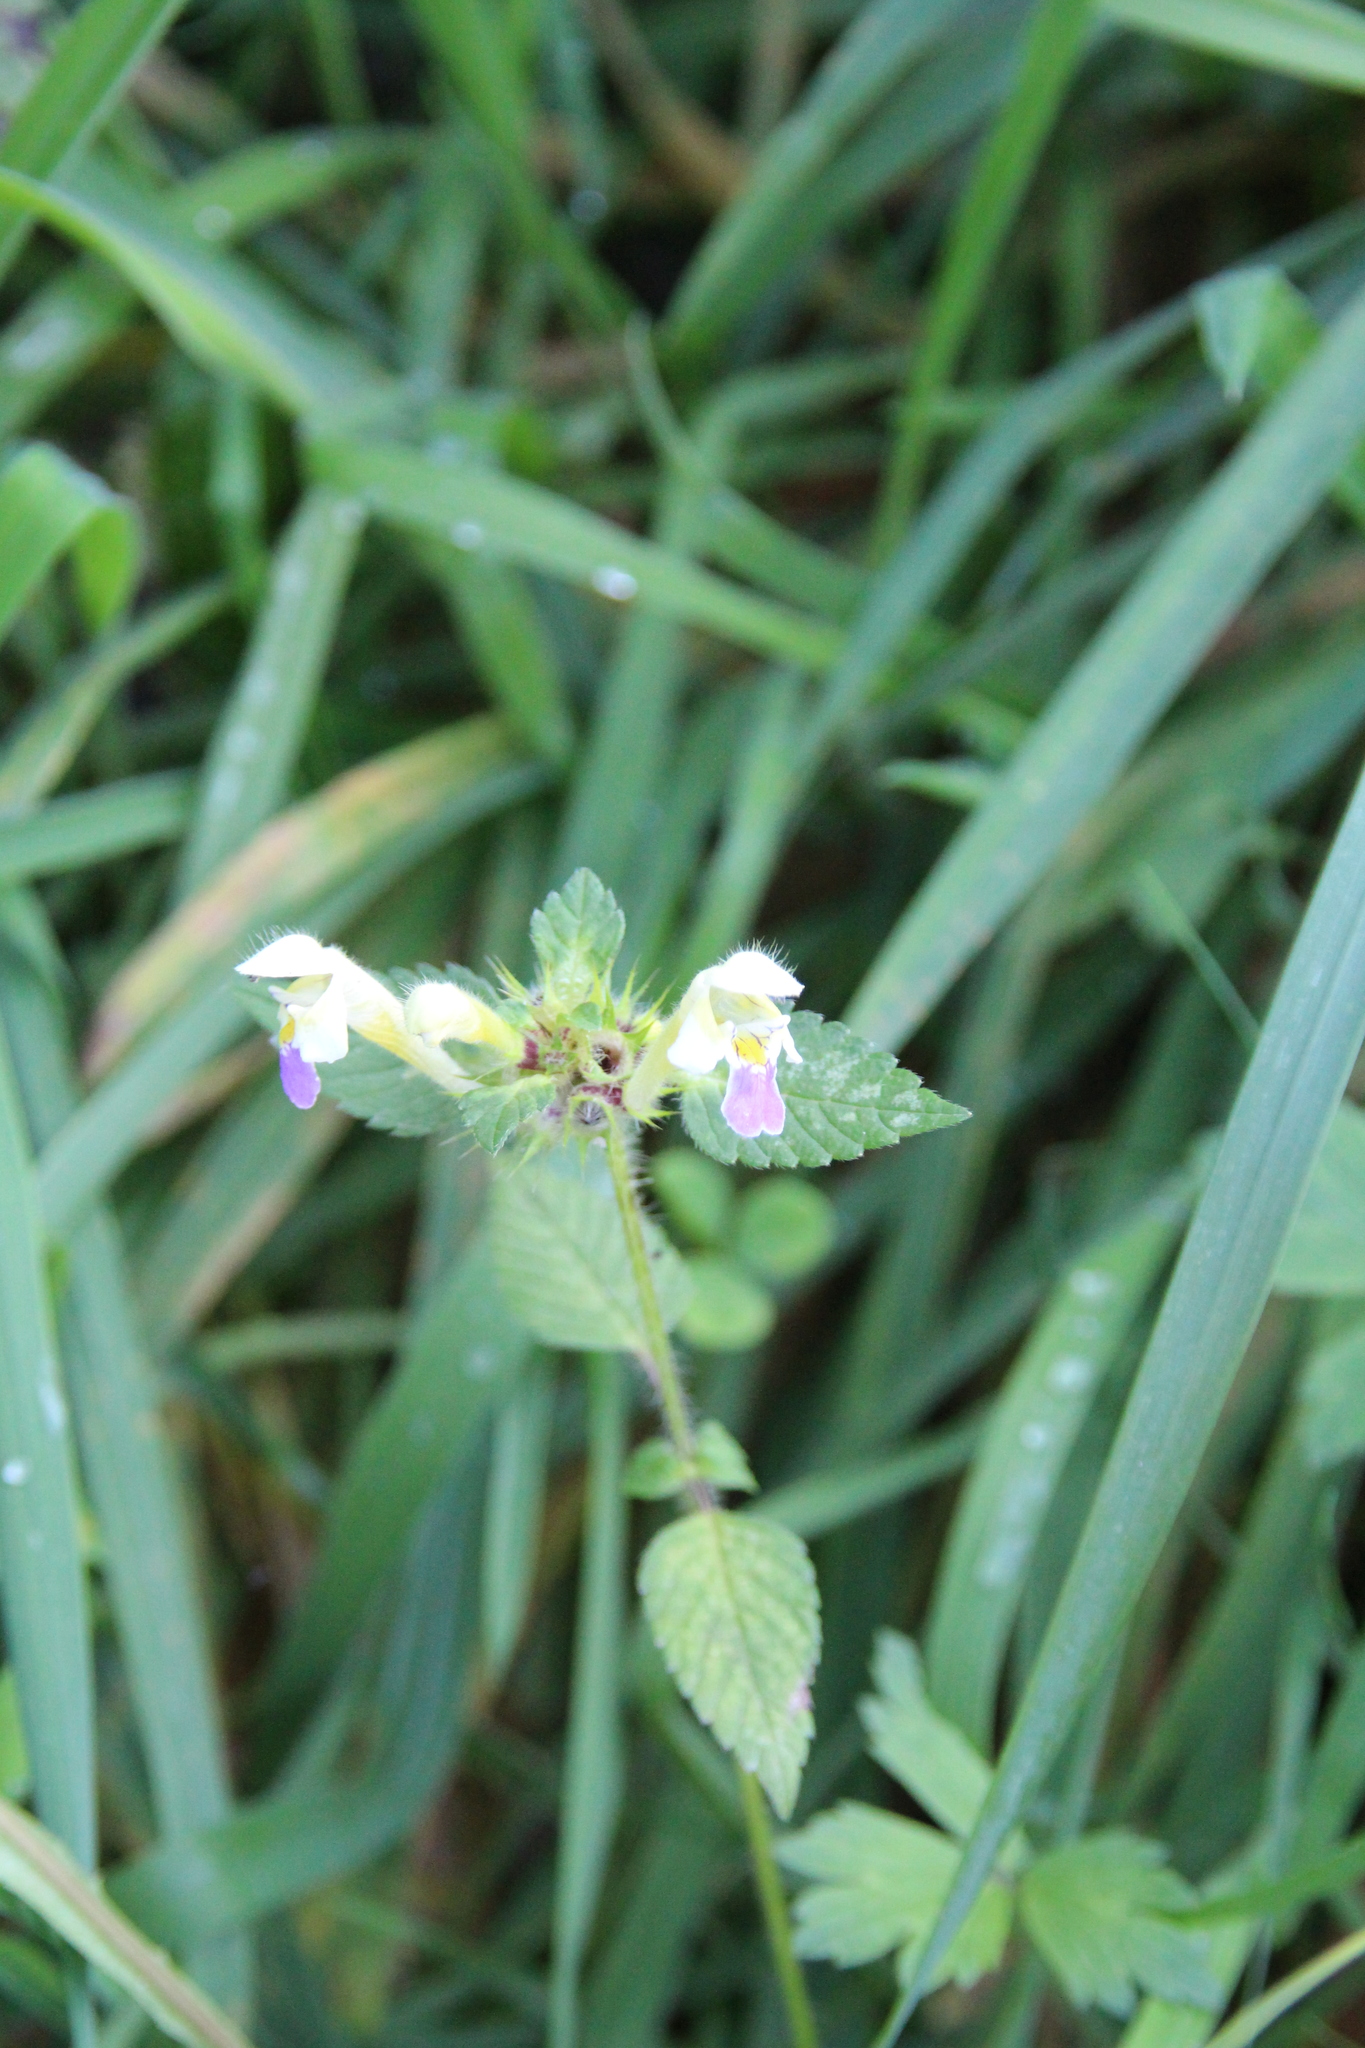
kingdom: Plantae
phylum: Tracheophyta
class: Magnoliopsida
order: Lamiales
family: Lamiaceae
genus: Galeopsis
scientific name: Galeopsis speciosa
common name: Large-flowered hemp-nettle
